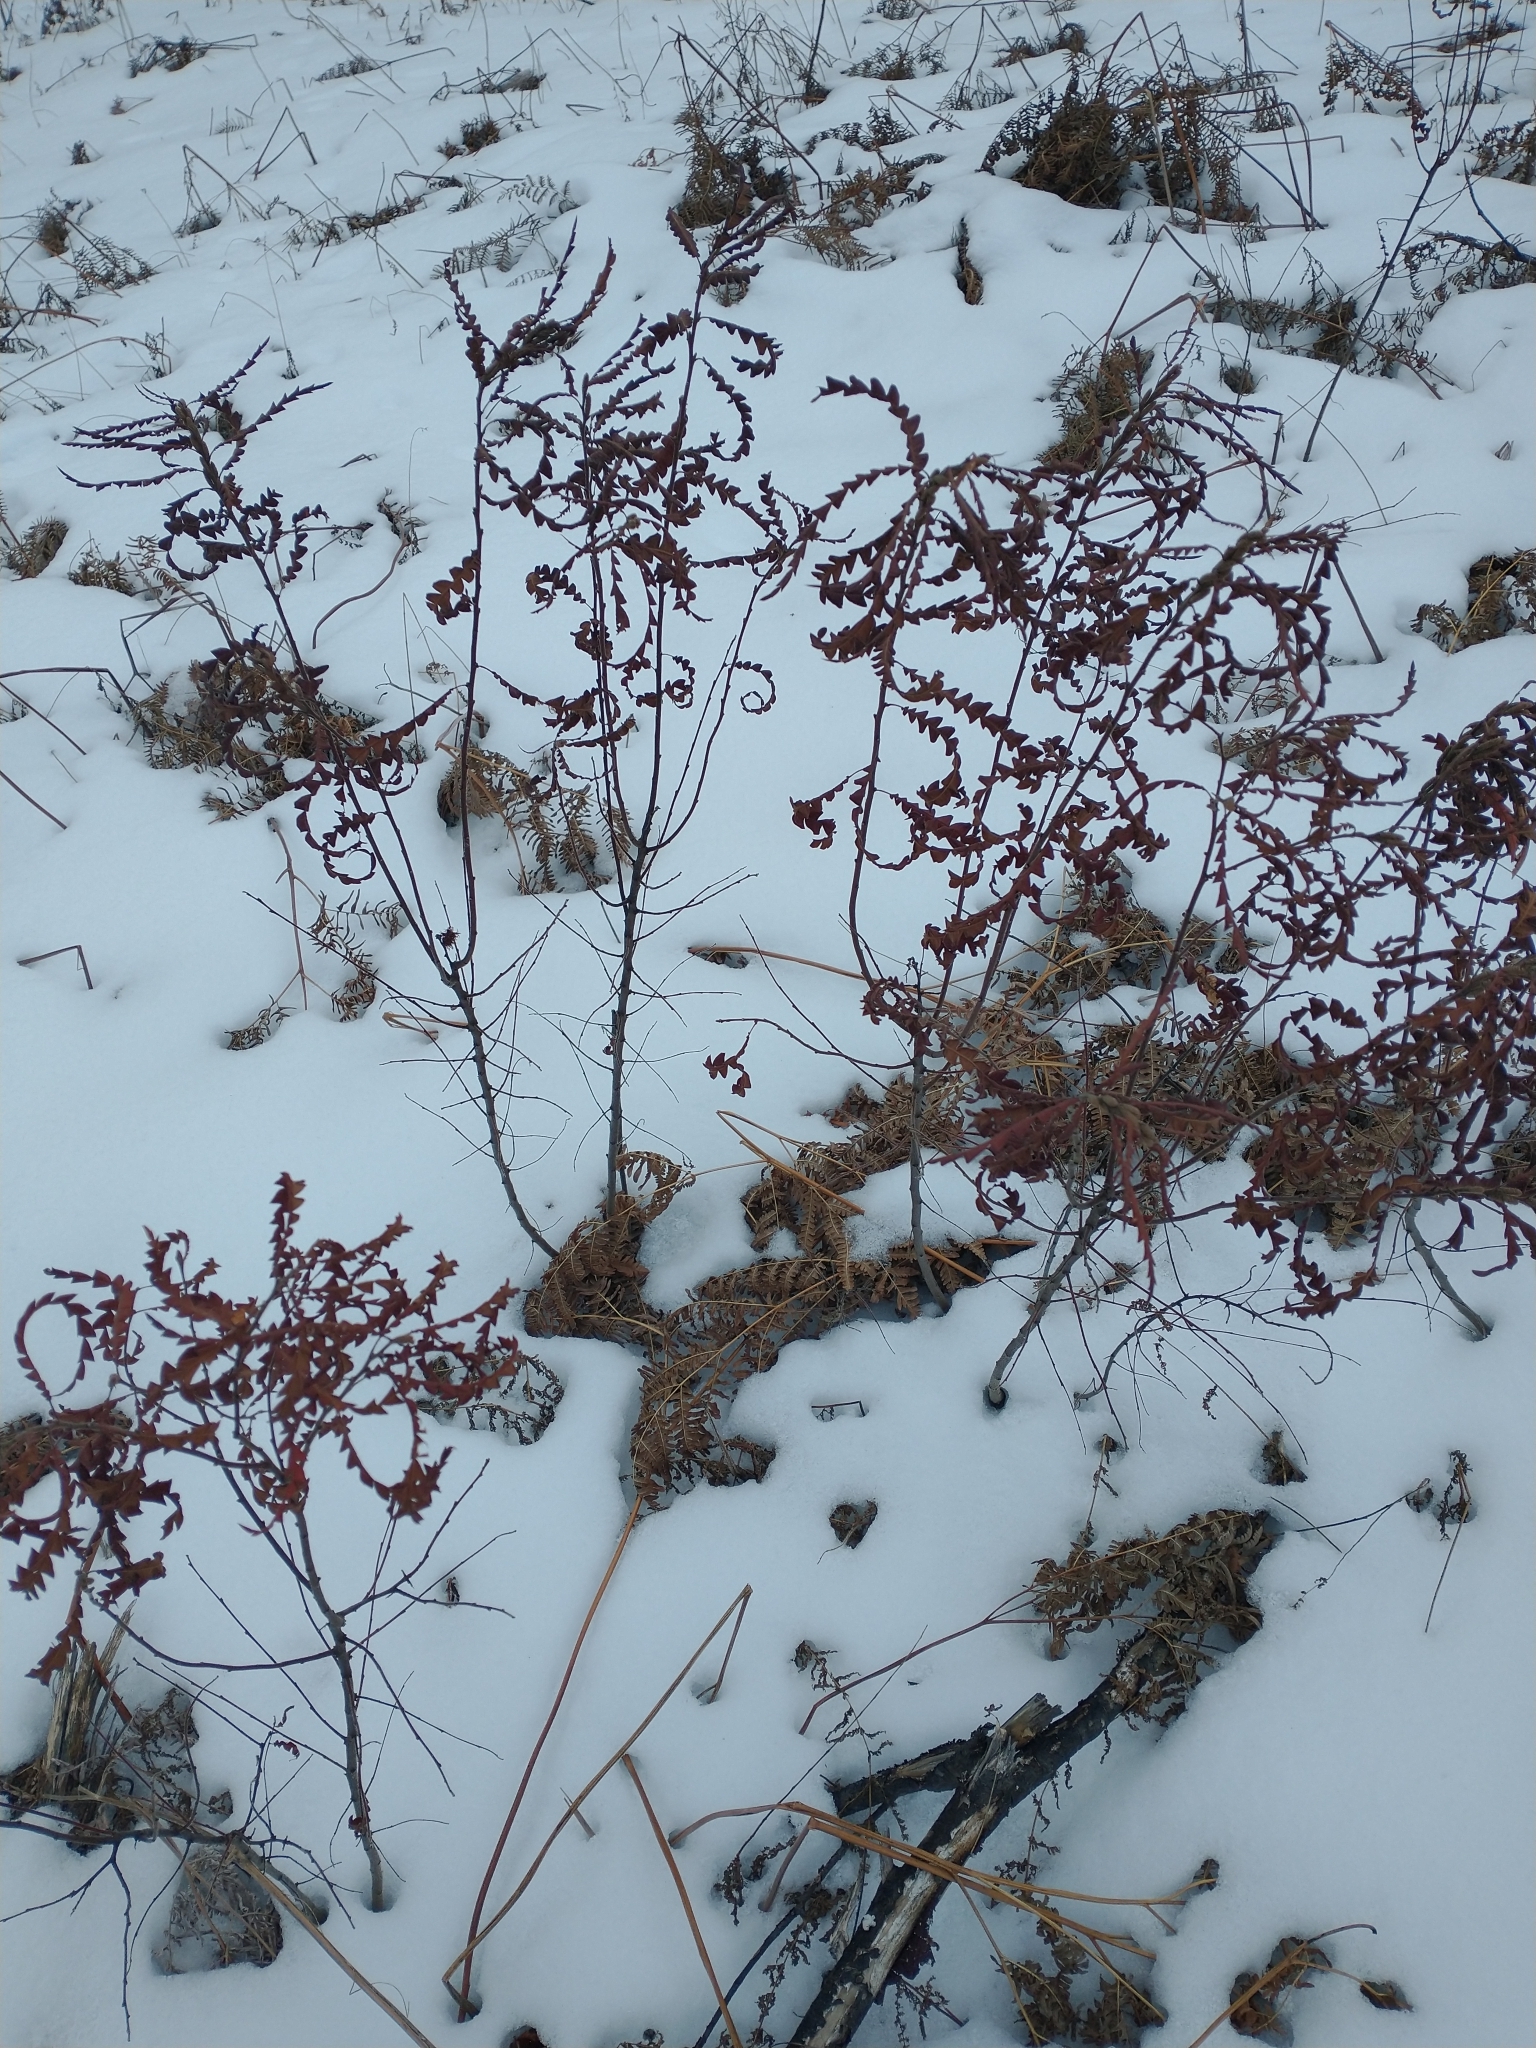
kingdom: Plantae
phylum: Tracheophyta
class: Magnoliopsida
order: Fagales
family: Myricaceae
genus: Comptonia
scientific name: Comptonia peregrina
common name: Sweet-fern
